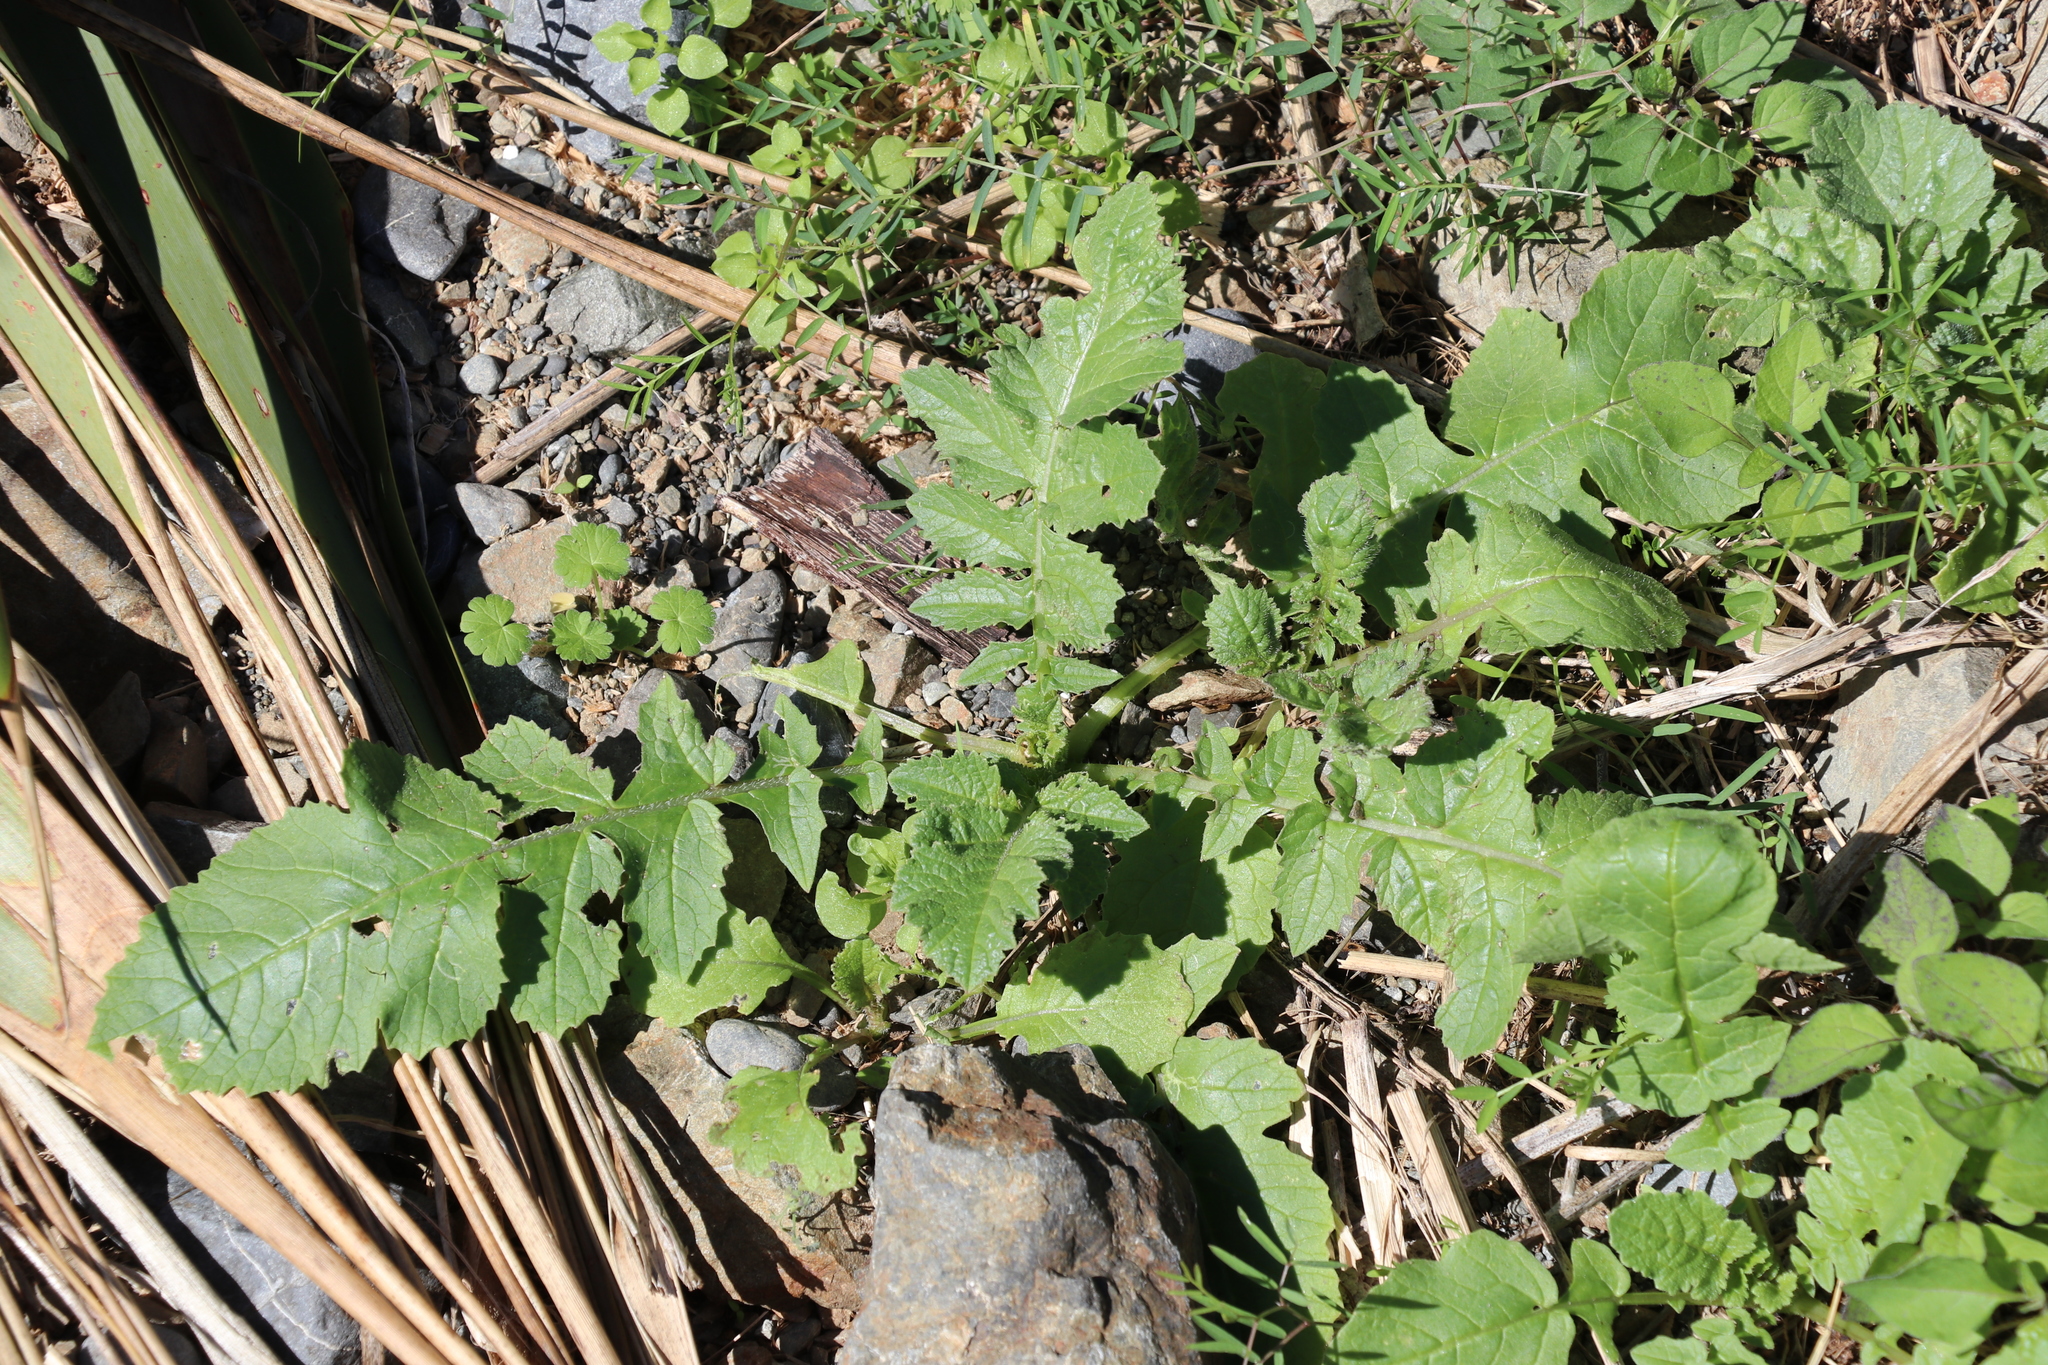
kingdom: Plantae
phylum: Tracheophyta
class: Magnoliopsida
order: Brassicales
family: Brassicaceae
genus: Raphanus
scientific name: Raphanus raphanistrum
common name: Wild radish
